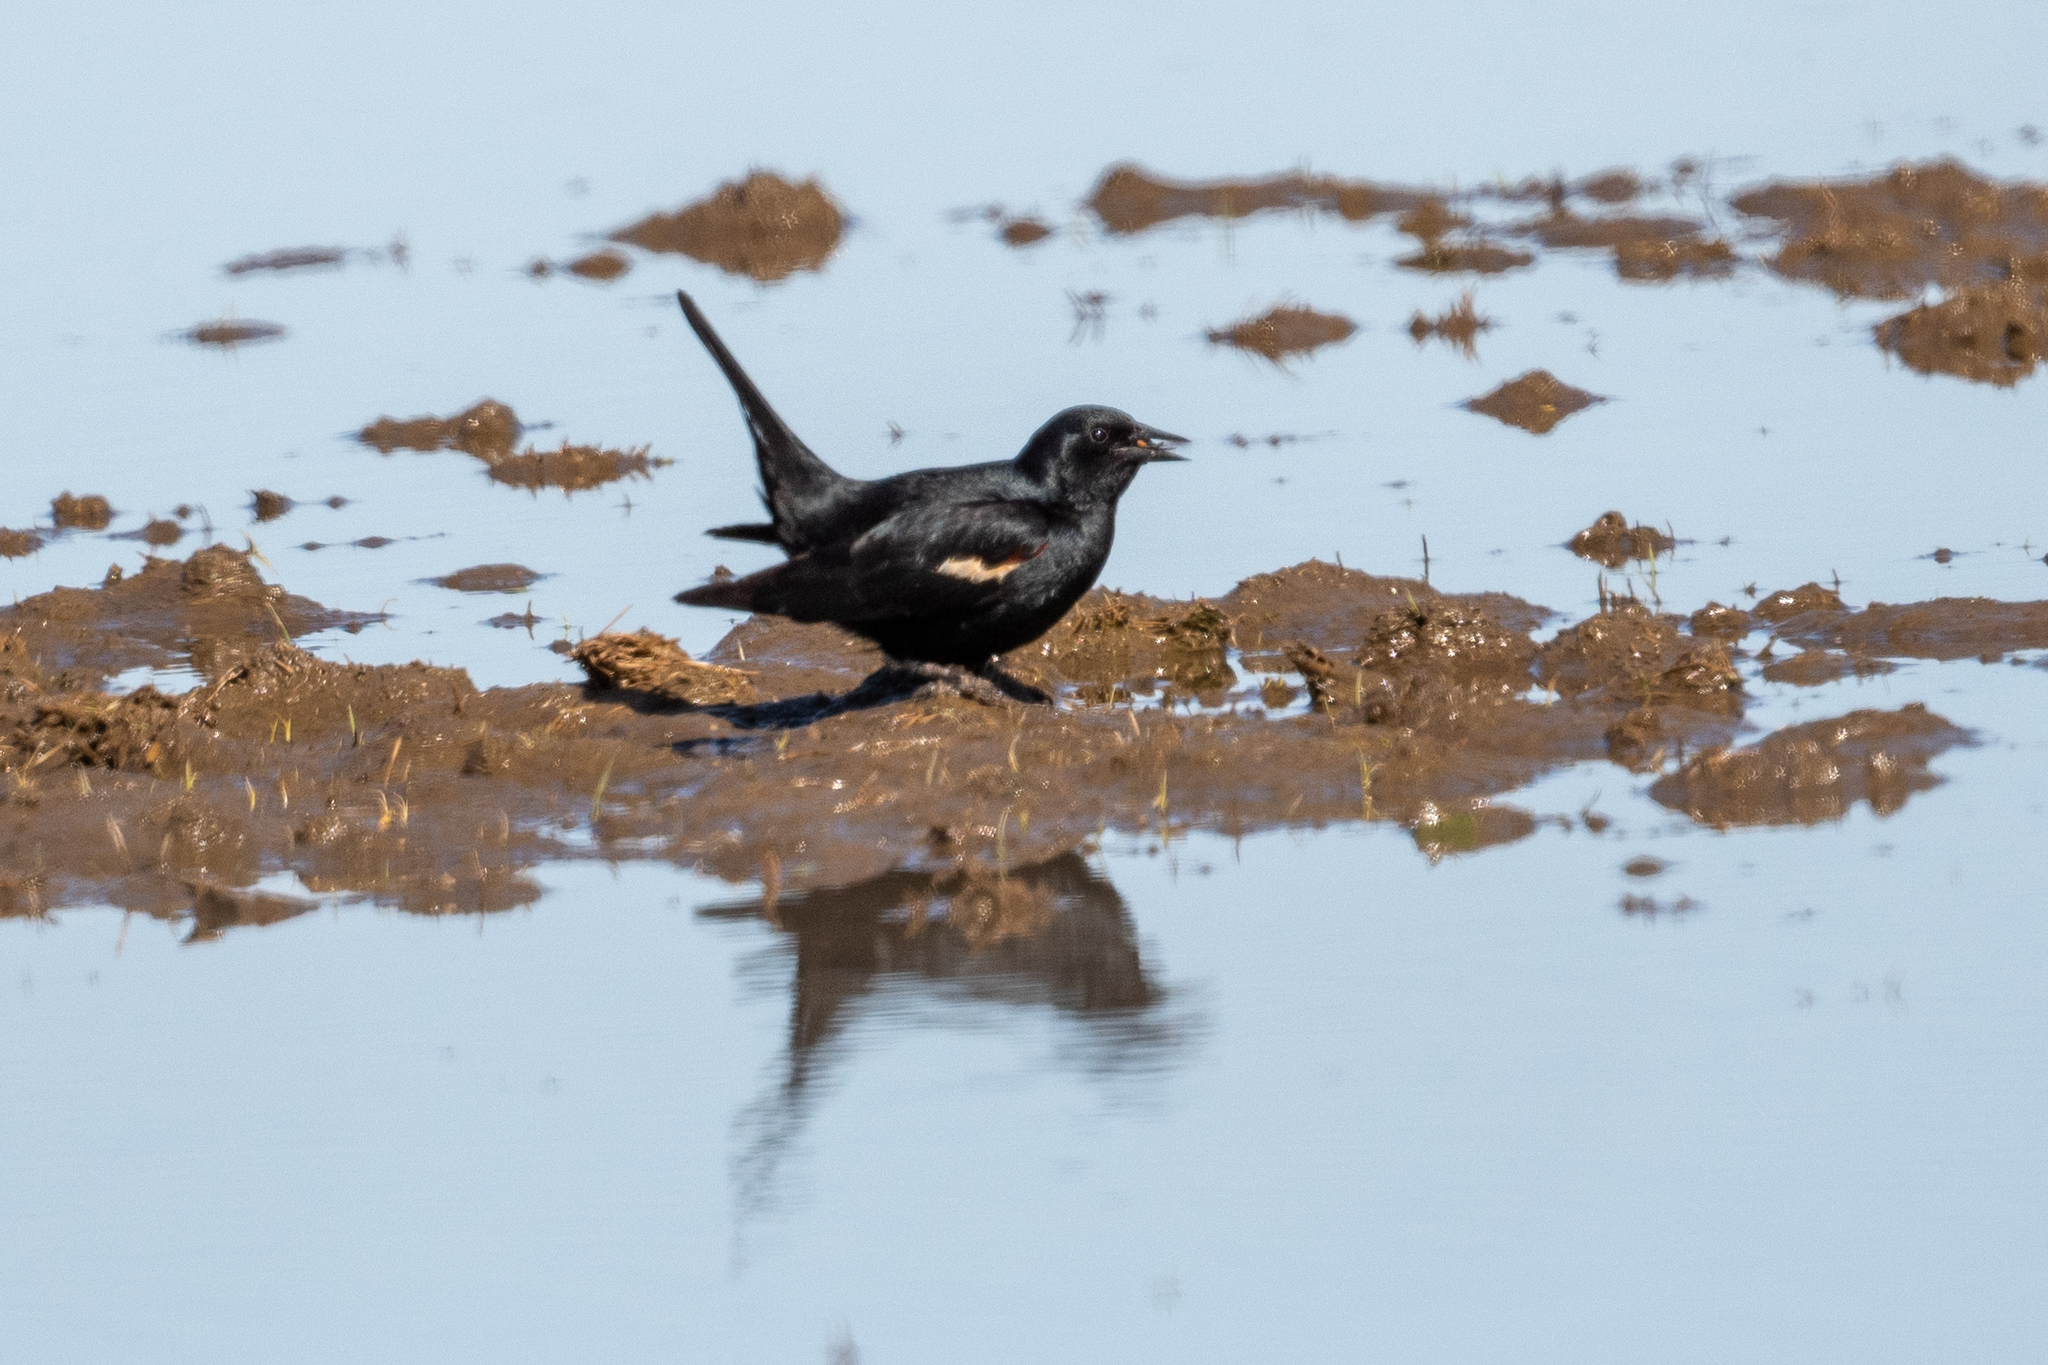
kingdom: Animalia
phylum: Chordata
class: Aves
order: Passeriformes
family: Icteridae
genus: Agelaius
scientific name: Agelaius tricolor
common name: Tricolored blackbird
